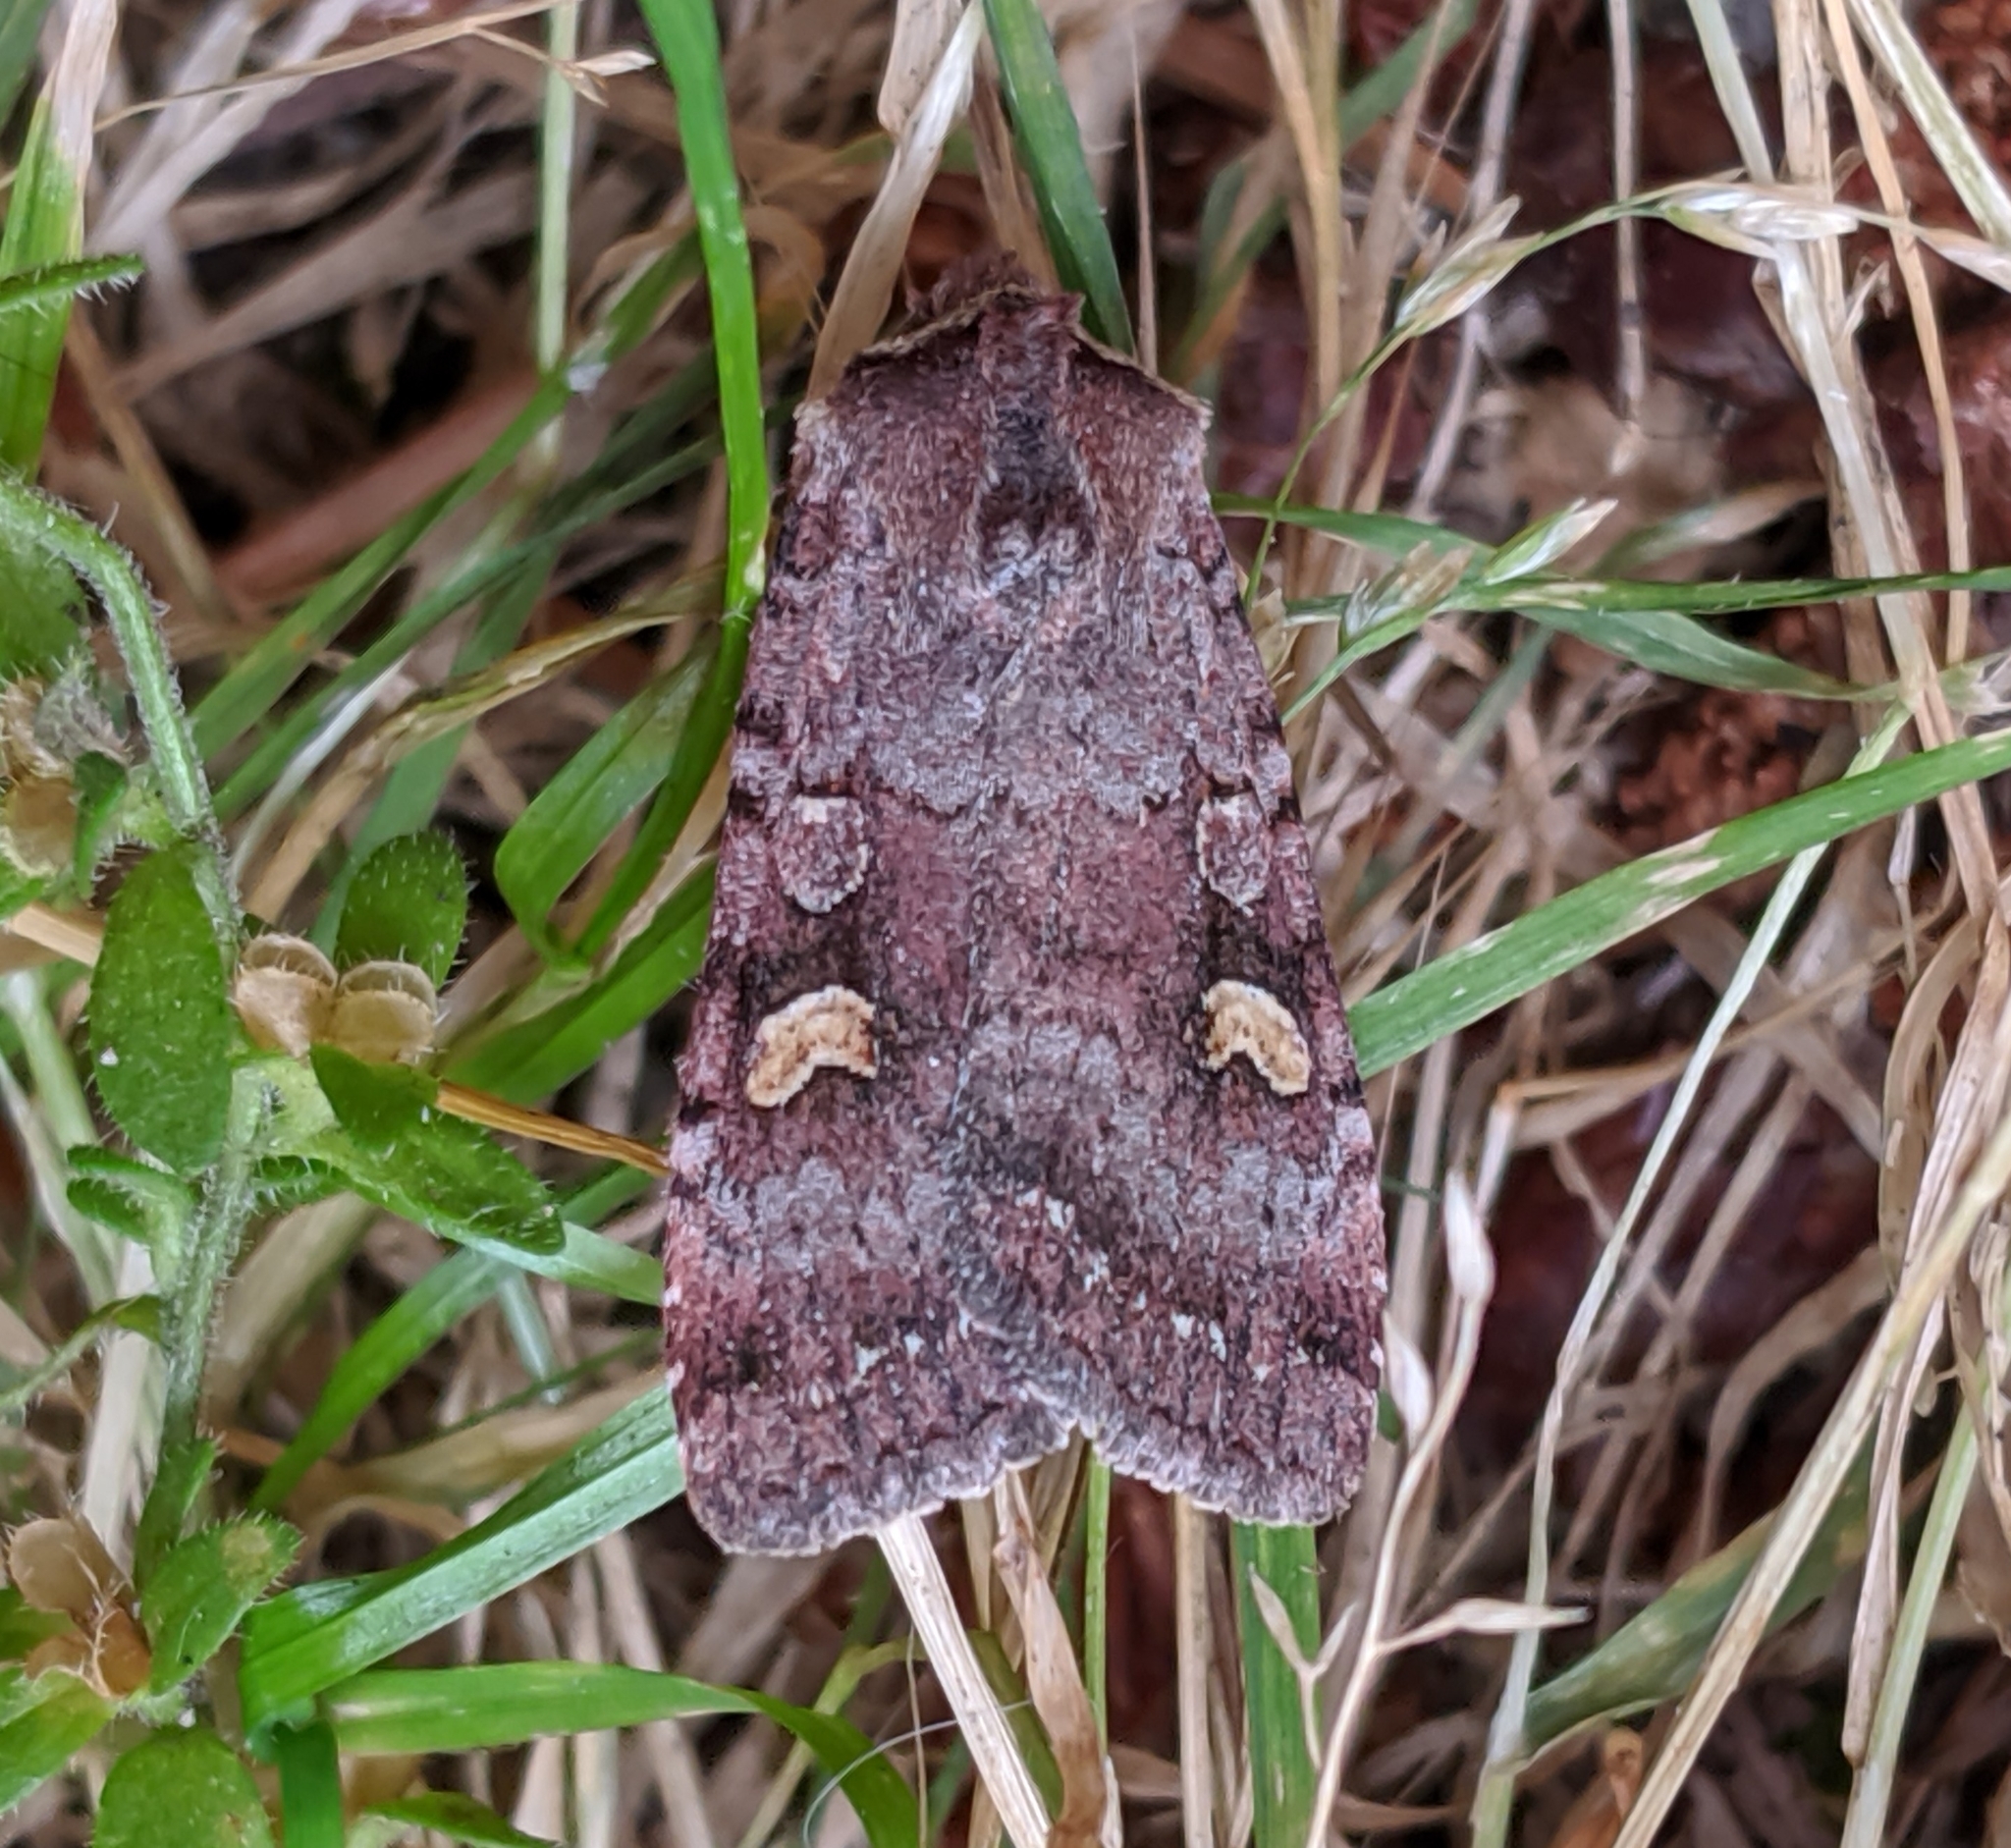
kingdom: Animalia
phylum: Arthropoda
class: Insecta
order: Lepidoptera
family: Noctuidae
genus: Adelphagrotis
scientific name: Adelphagrotis stellaris
